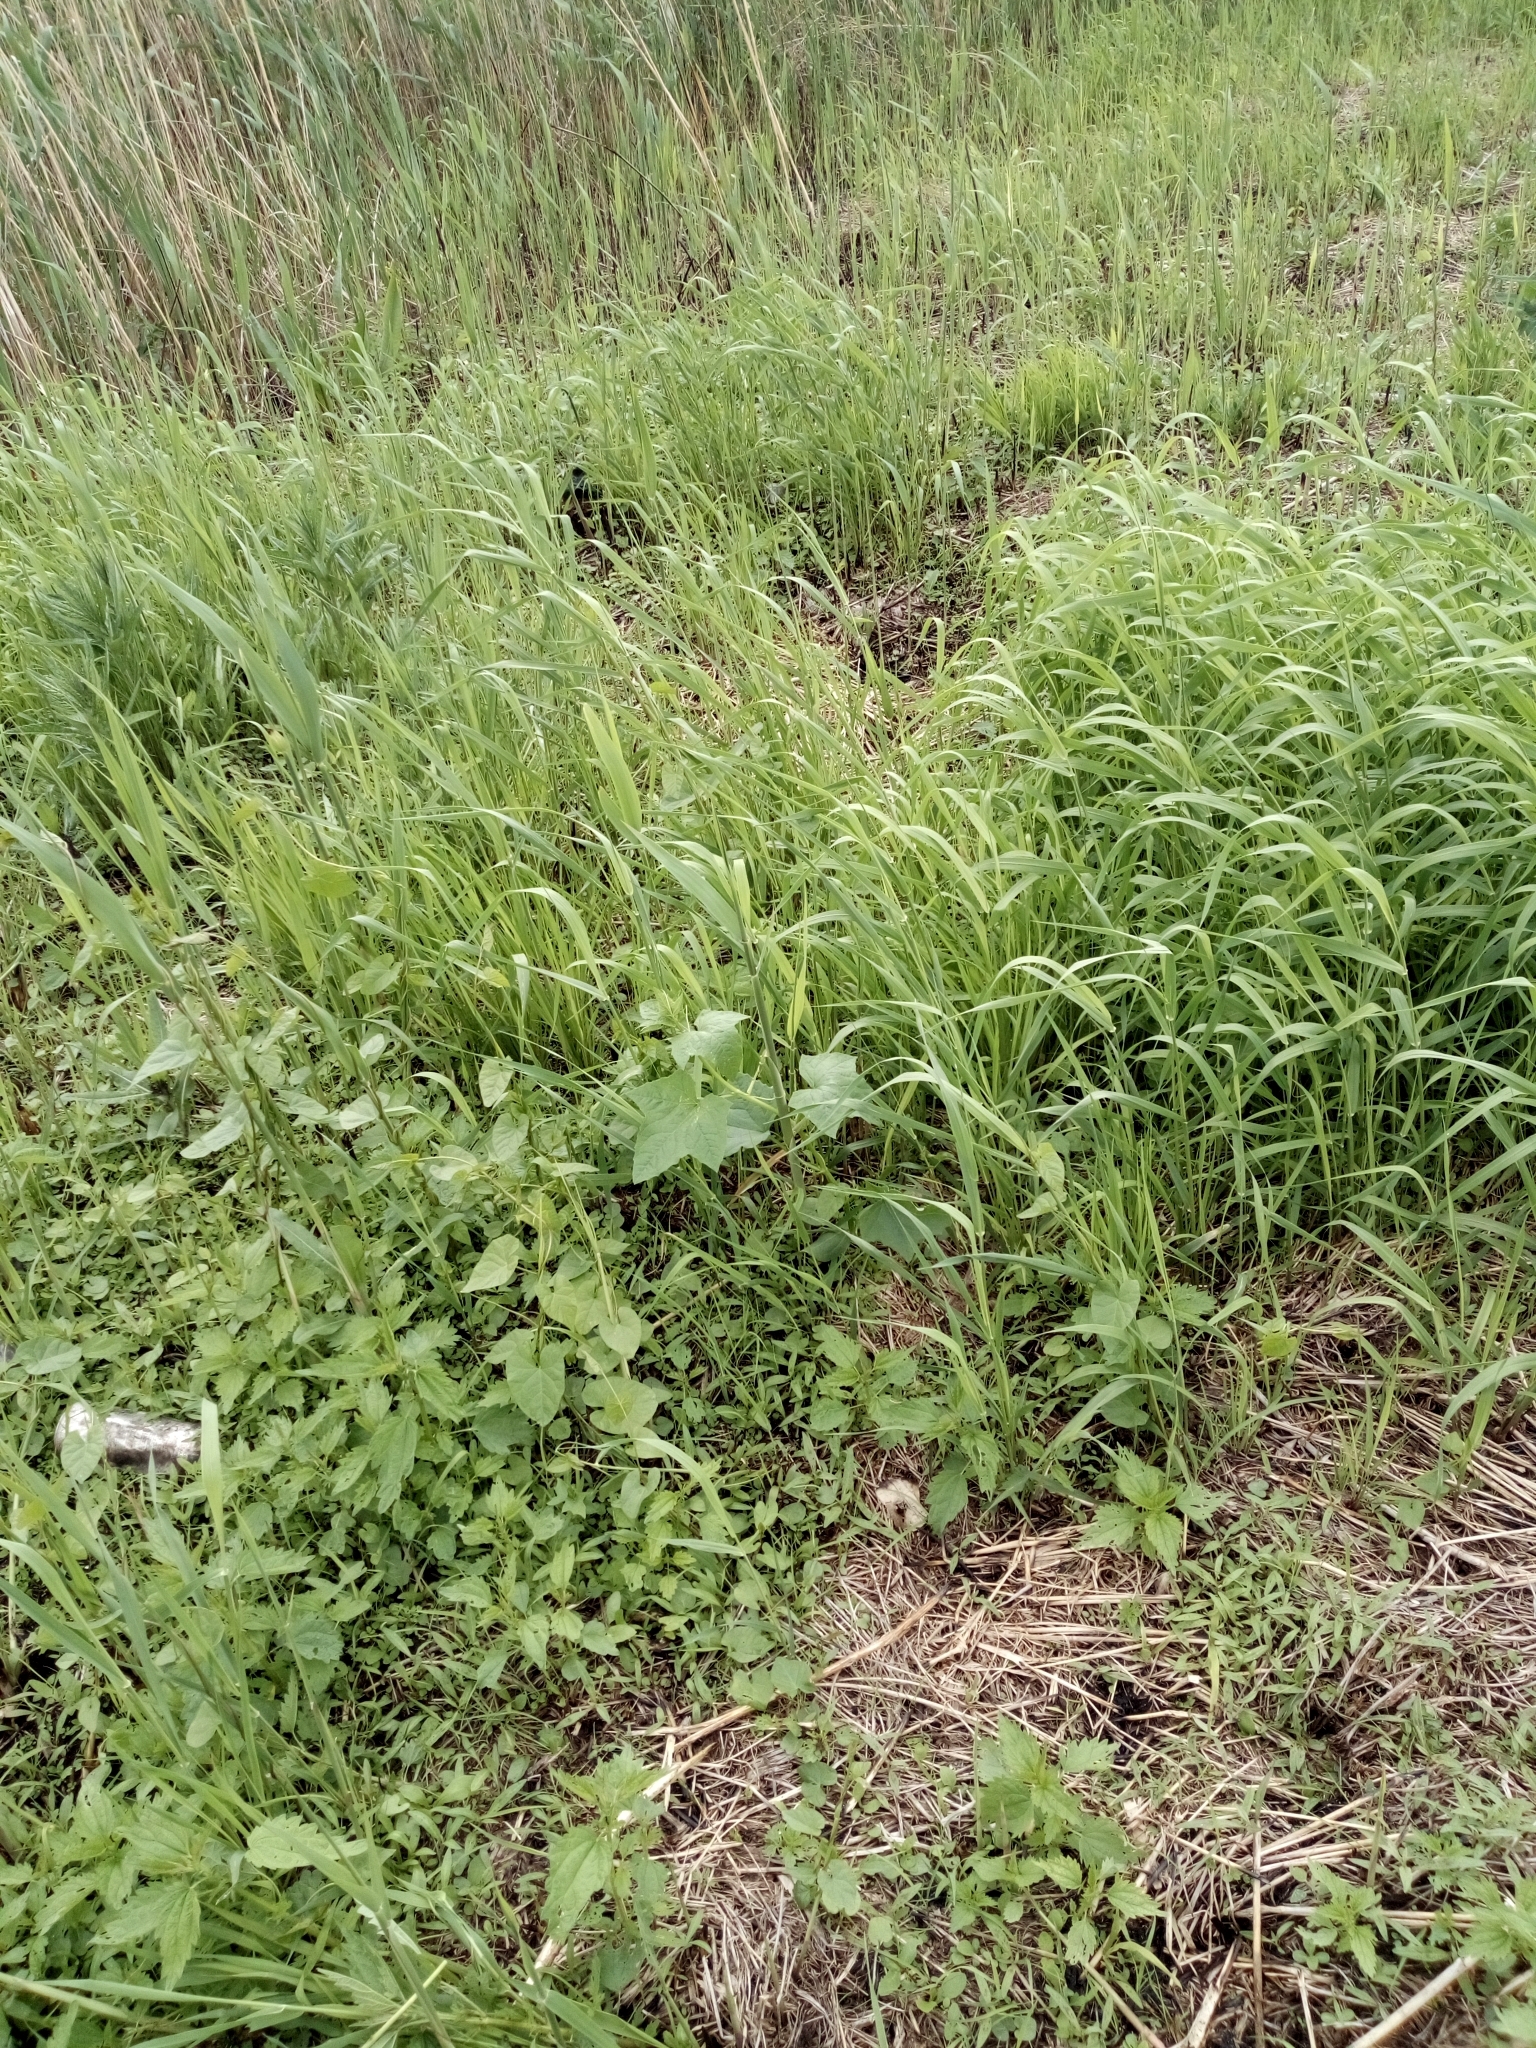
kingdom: Plantae
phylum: Tracheophyta
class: Magnoliopsida
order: Cucurbitales
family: Cucurbitaceae
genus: Echinocystis
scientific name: Echinocystis lobata
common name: Wild cucumber
